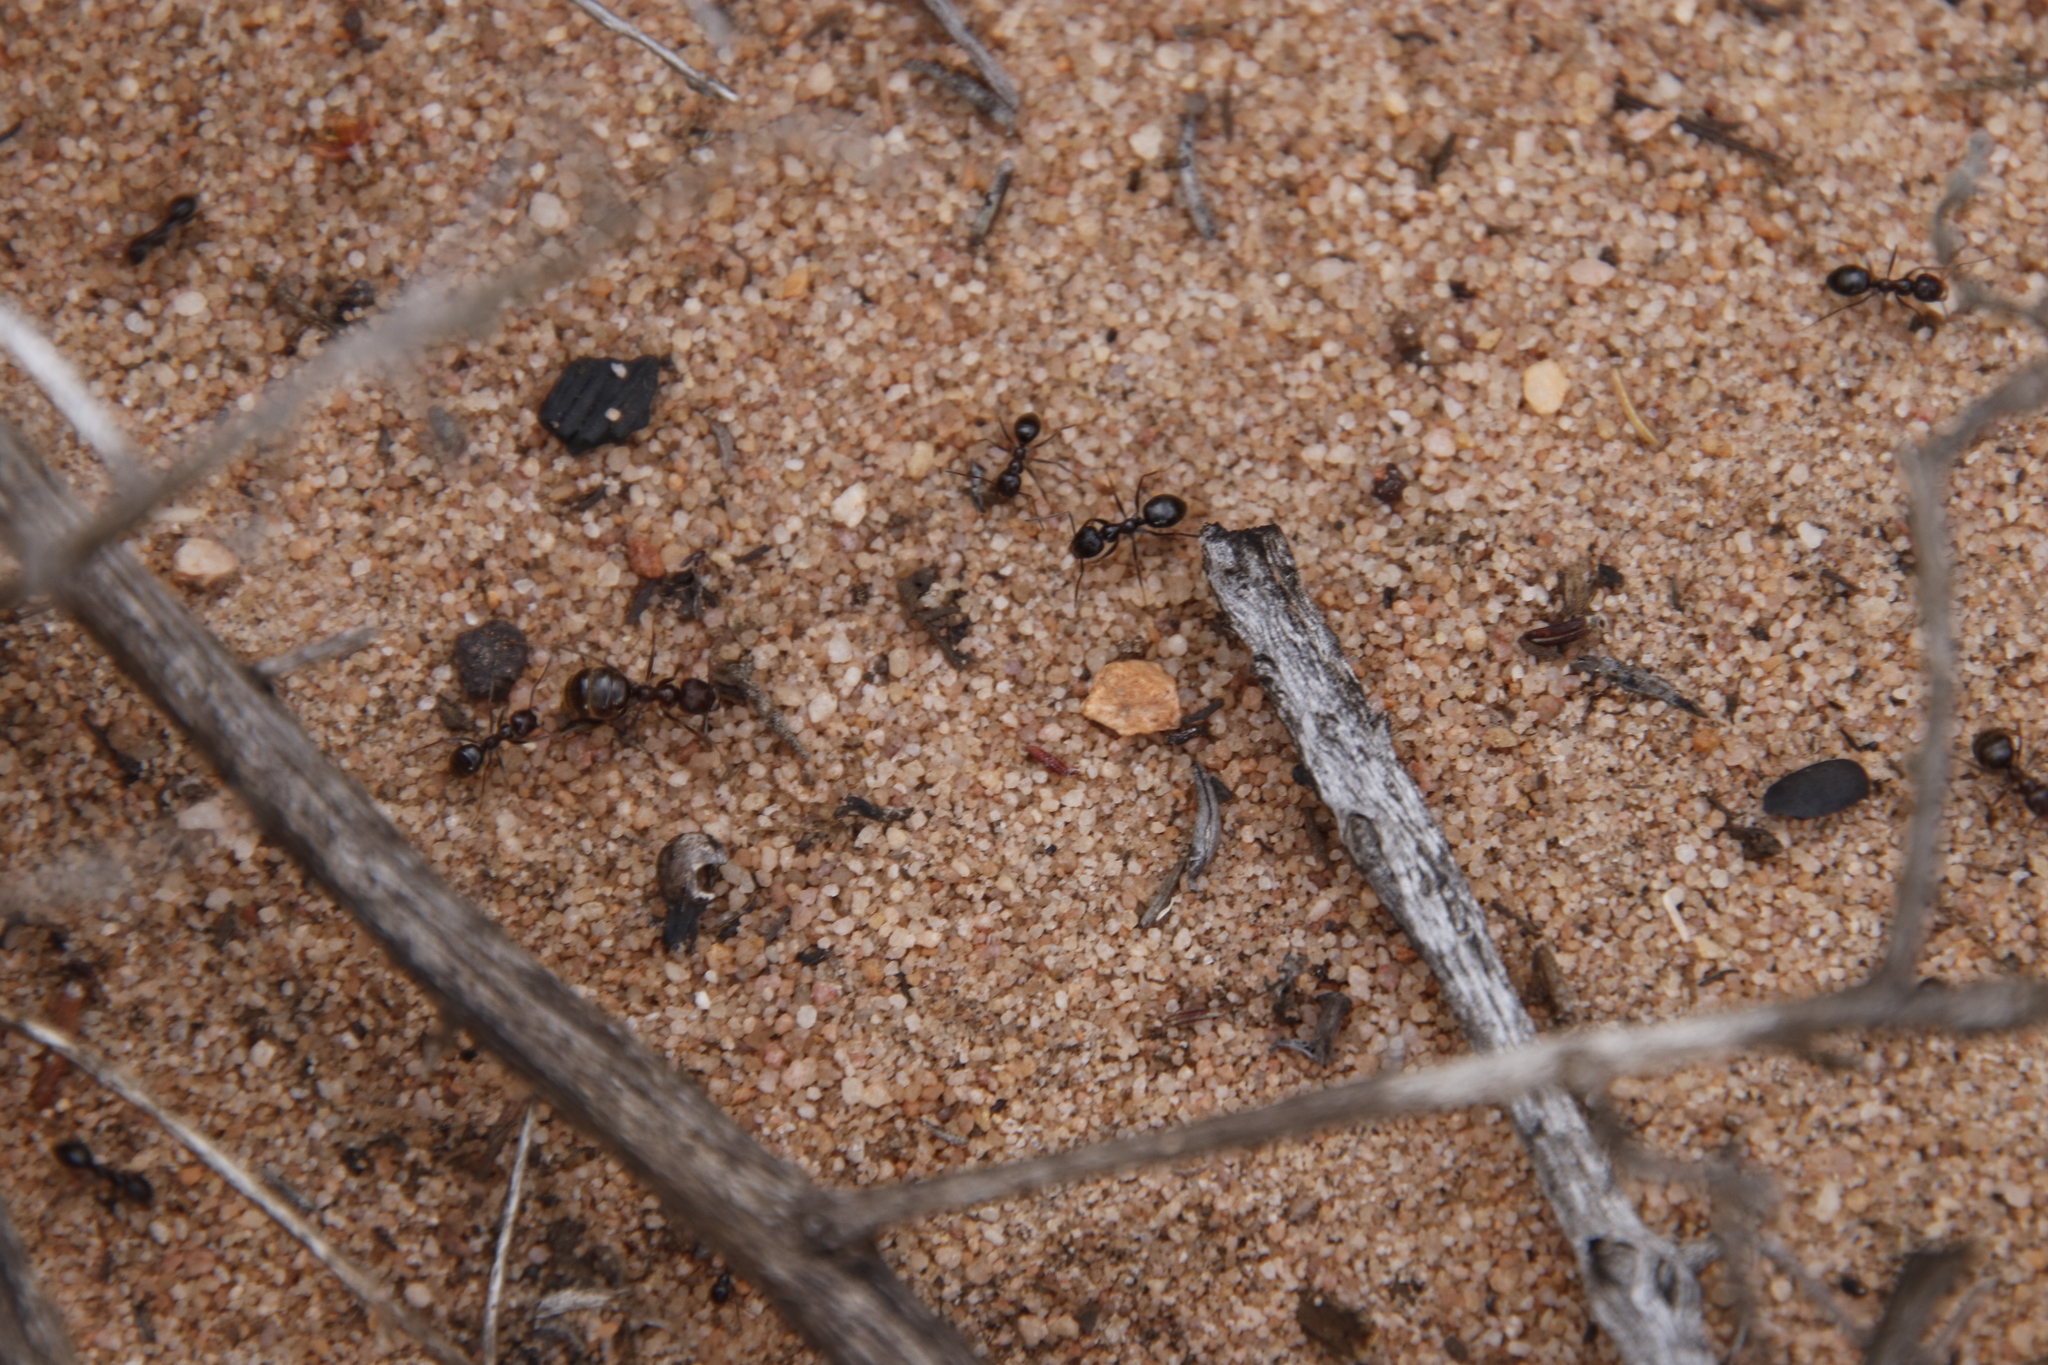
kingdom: Animalia
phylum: Arthropoda
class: Insecta
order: Hymenoptera
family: Formicidae
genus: Anoplolepis
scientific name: Anoplolepis steingroeveri
